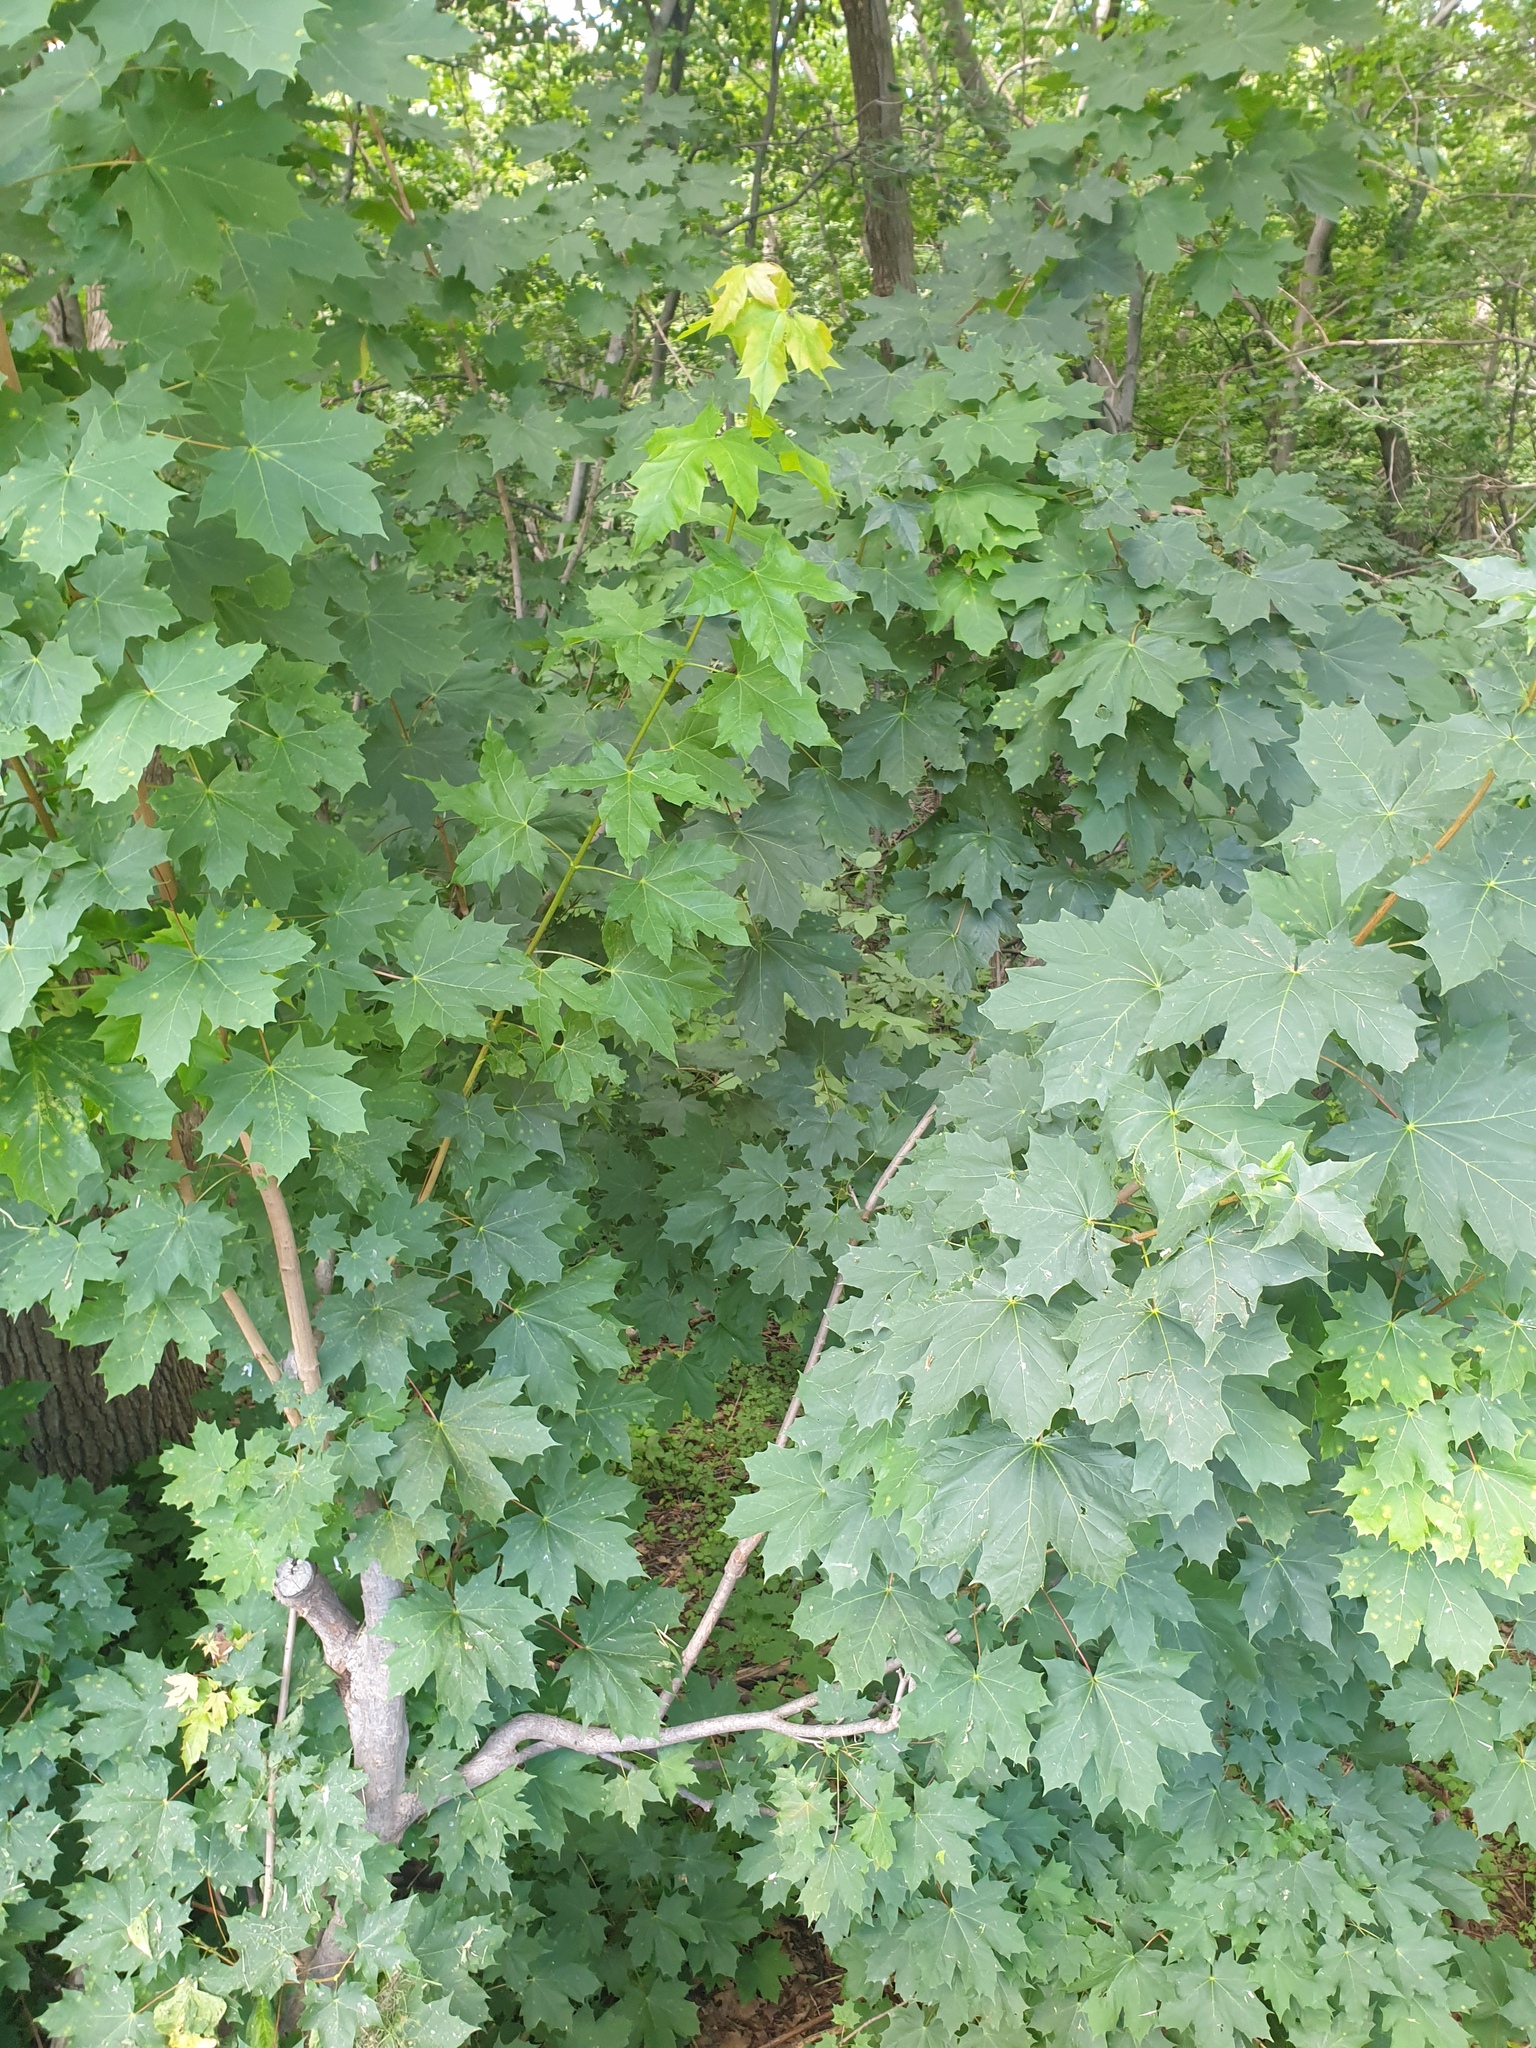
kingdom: Plantae
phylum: Tracheophyta
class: Magnoliopsida
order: Sapindales
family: Sapindaceae
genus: Acer
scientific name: Acer platanoides
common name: Norway maple
